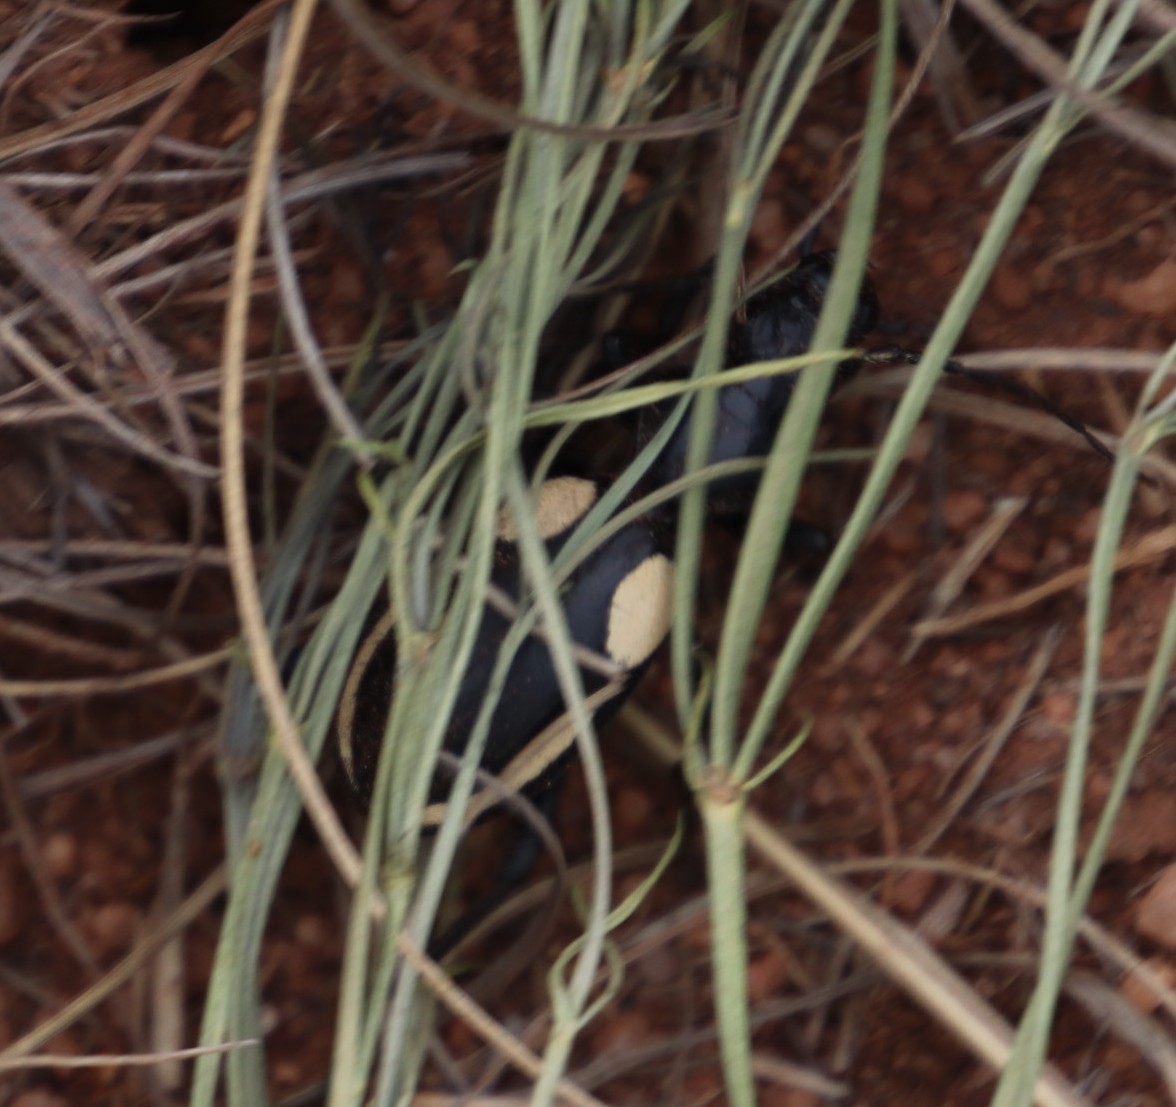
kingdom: Animalia
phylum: Arthropoda
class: Insecta
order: Coleoptera
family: Carabidae
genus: Anthia
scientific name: Anthia
